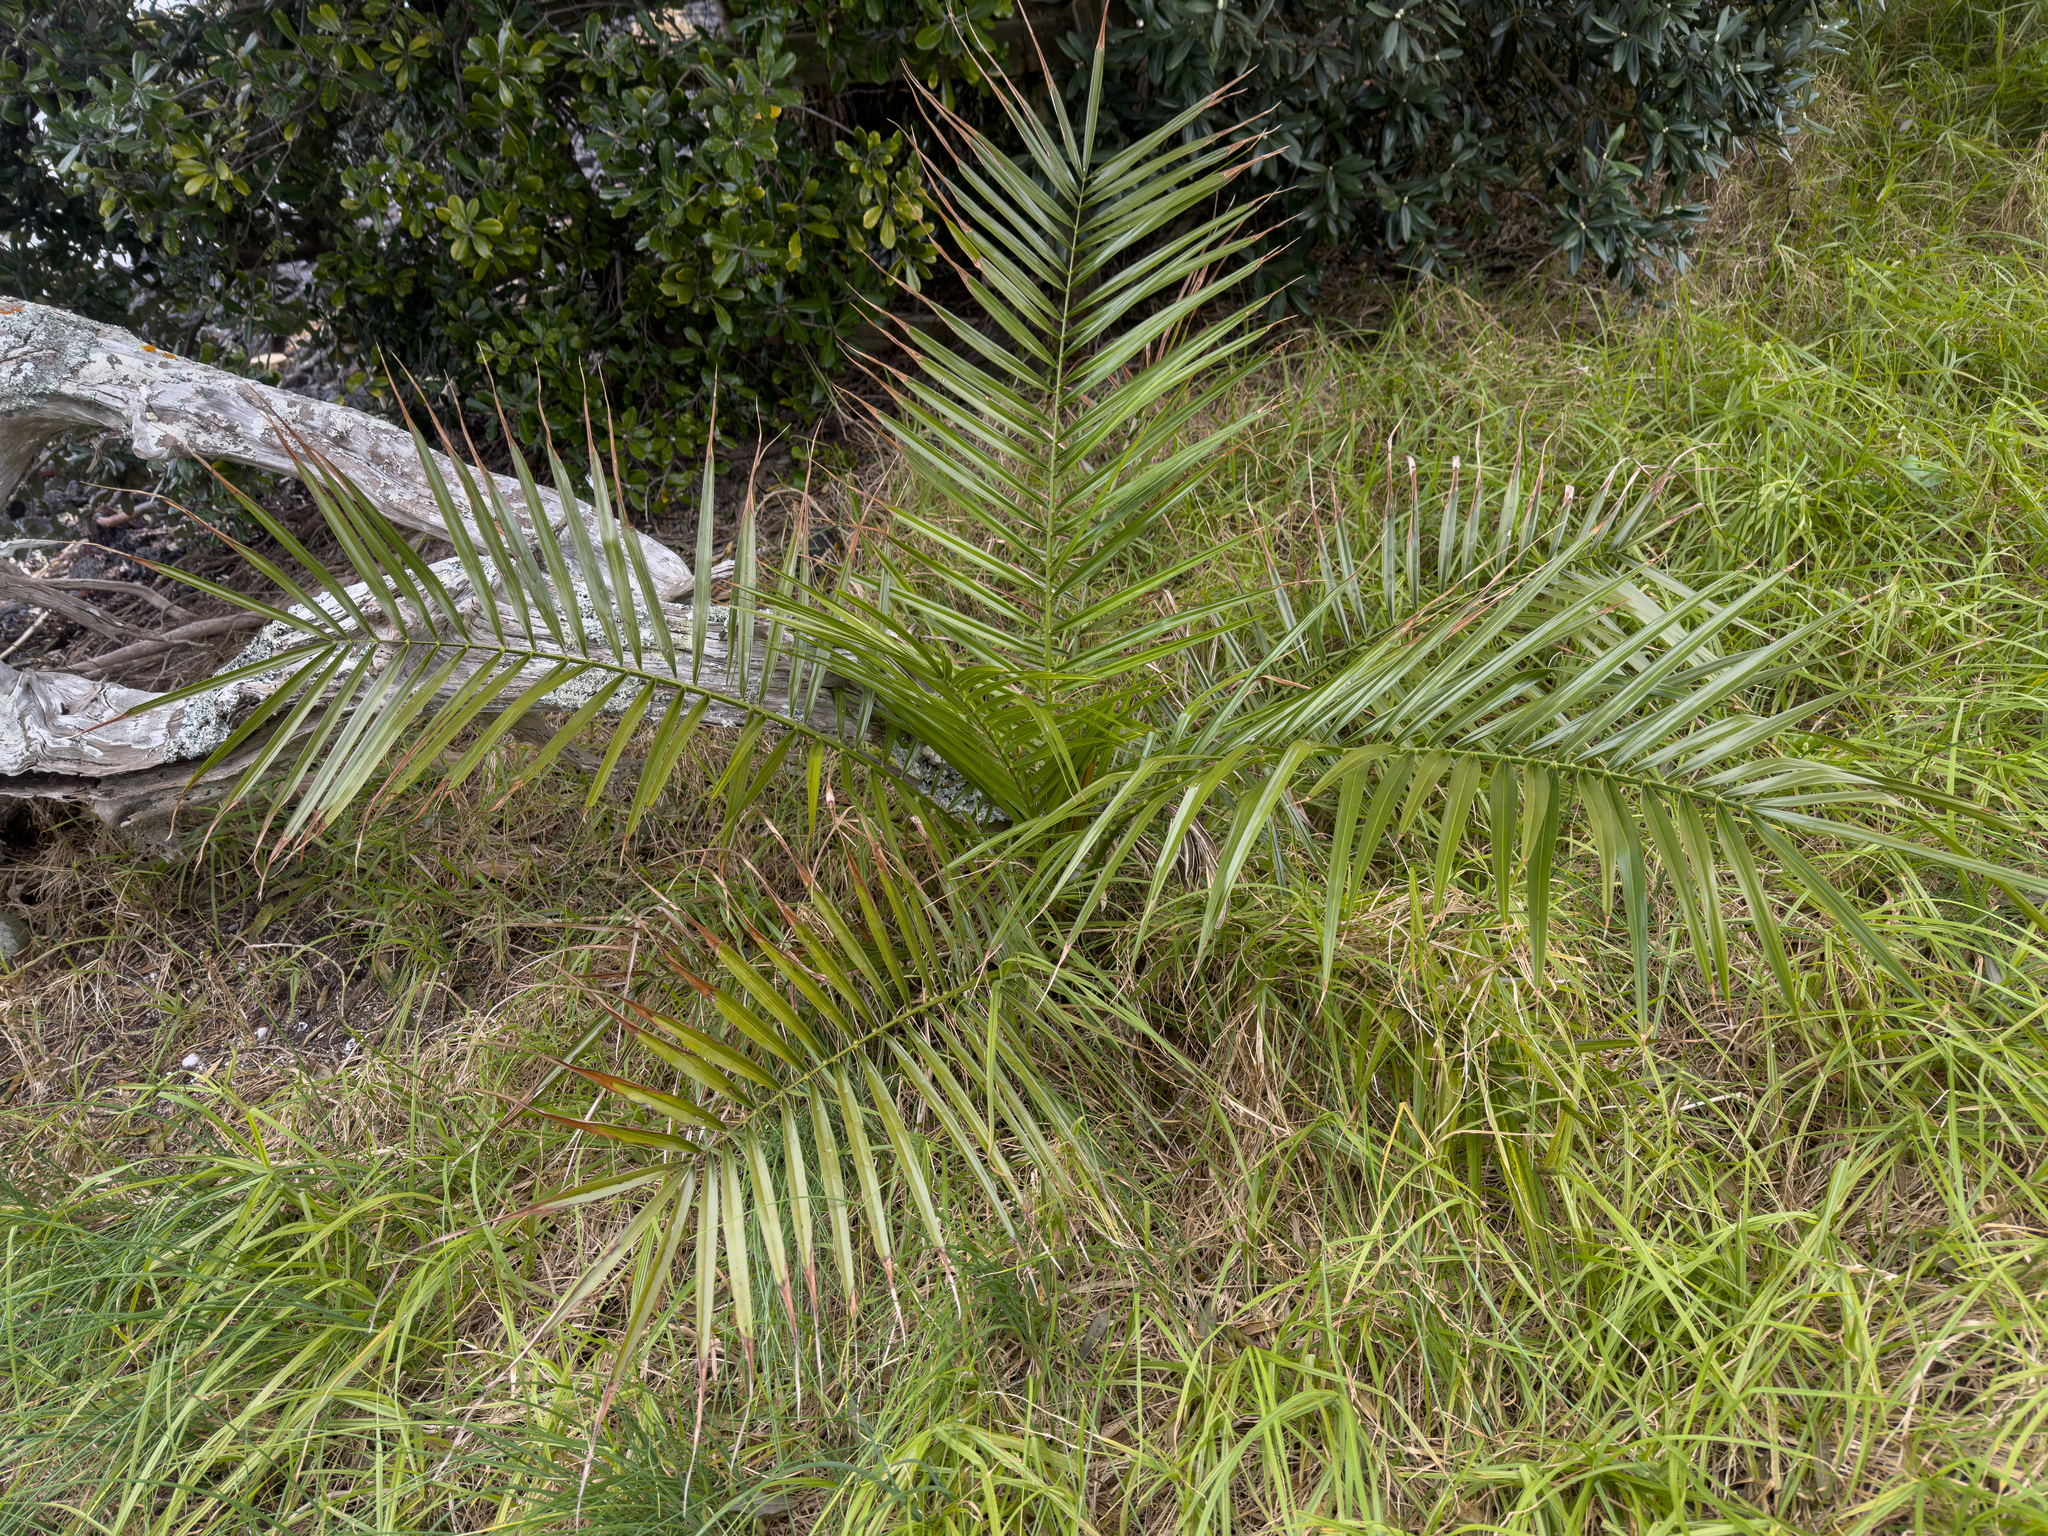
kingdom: Plantae
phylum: Tracheophyta
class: Liliopsida
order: Arecales
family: Arecaceae
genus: Phoenix
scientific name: Phoenix canariensis
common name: Canary island date palm
